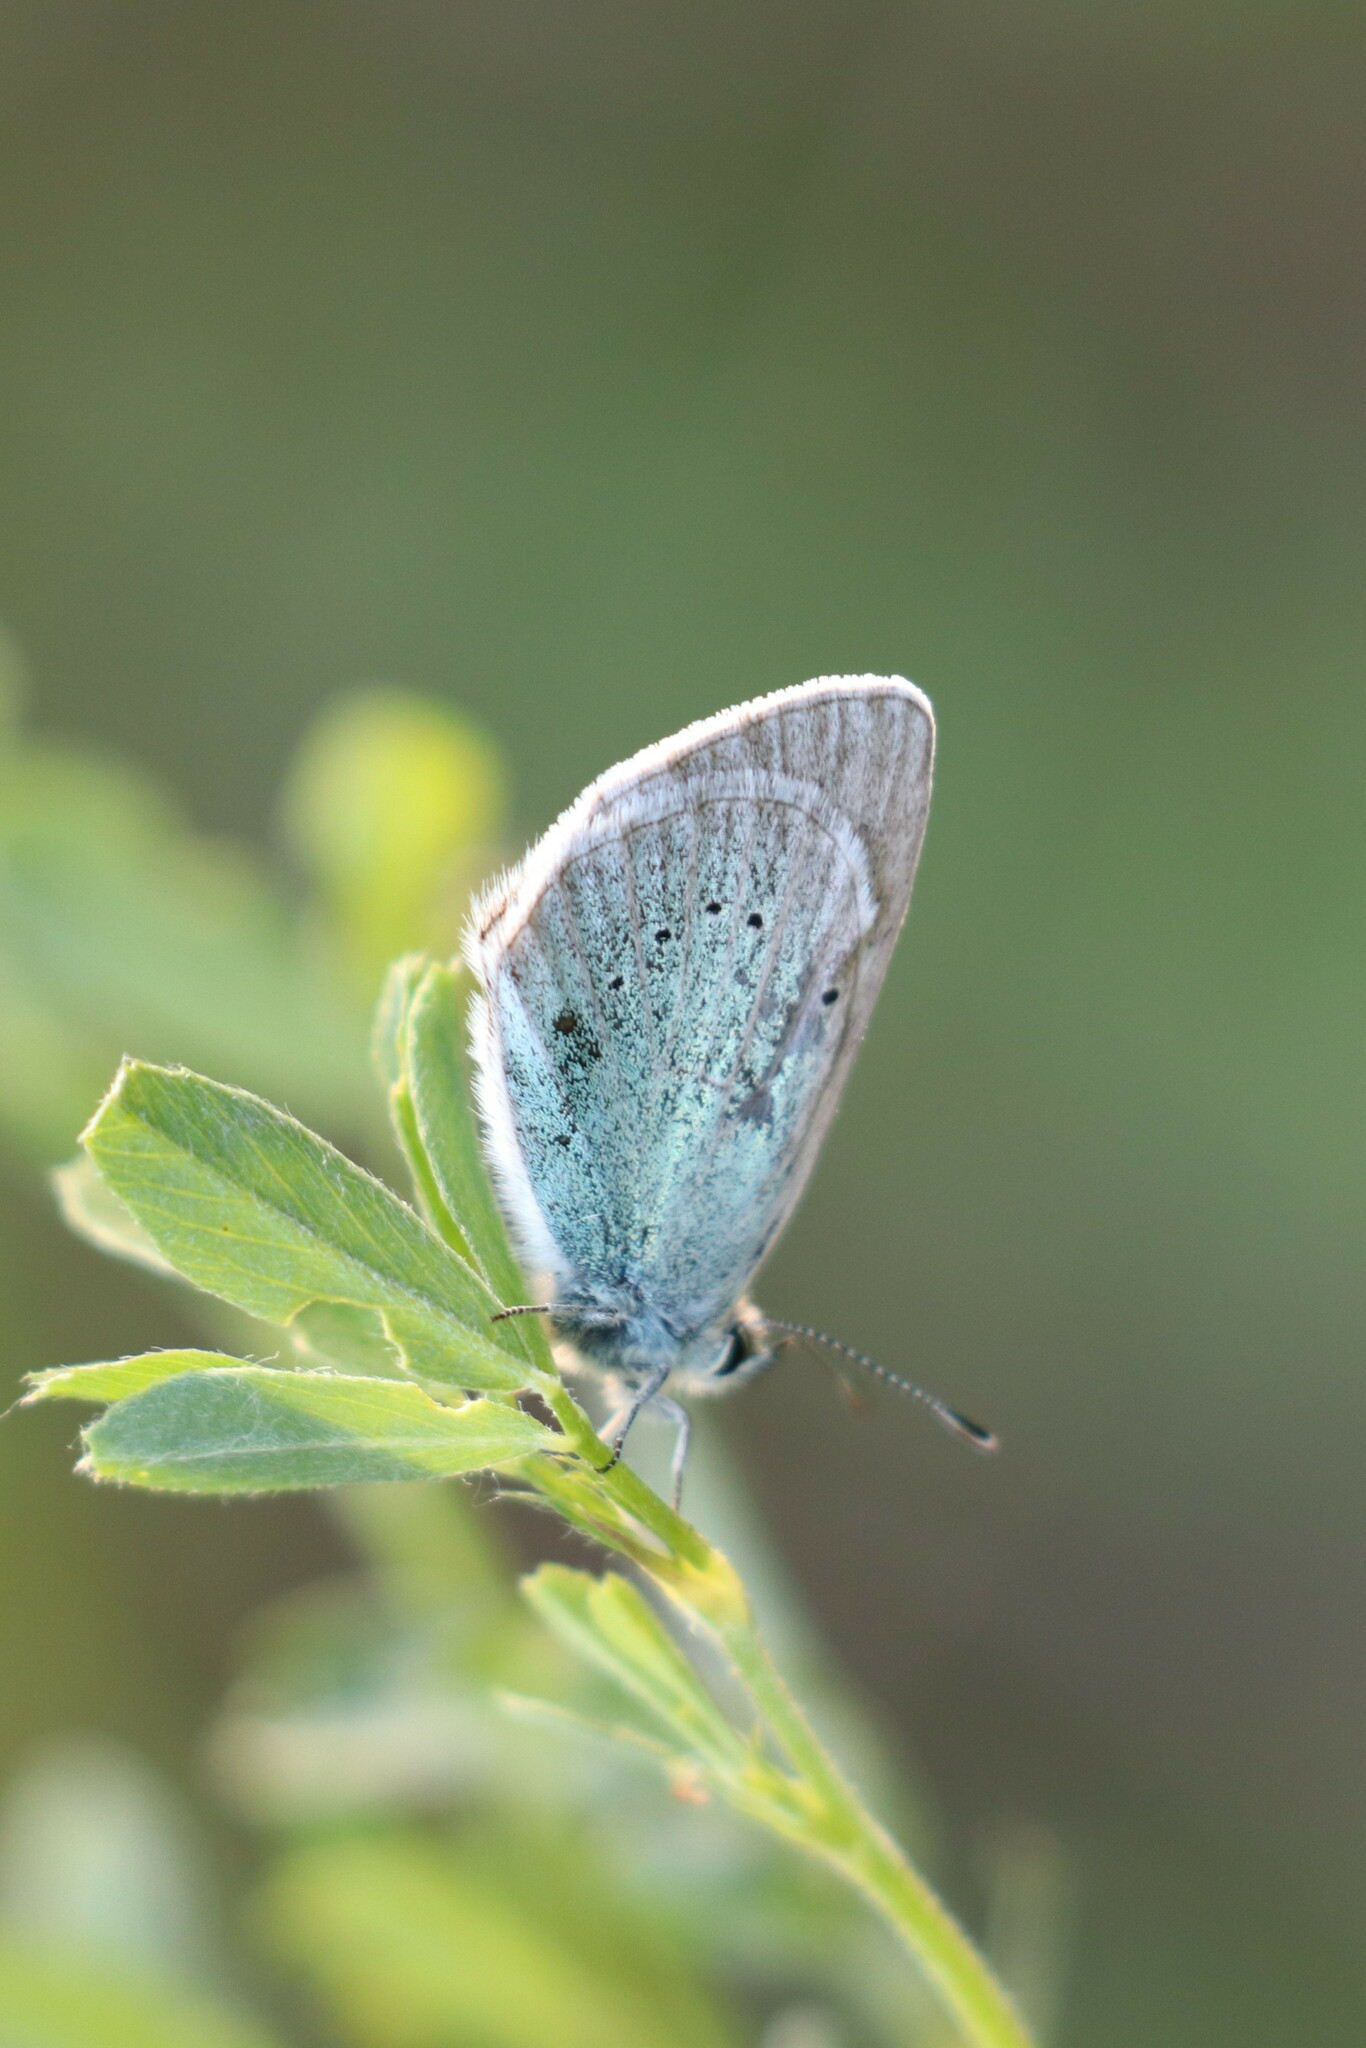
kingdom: Animalia
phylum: Arthropoda
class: Insecta
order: Lepidoptera
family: Lycaenidae
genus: Glaucopsyche
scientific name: Glaucopsyche alexis
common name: Green-underside blue
